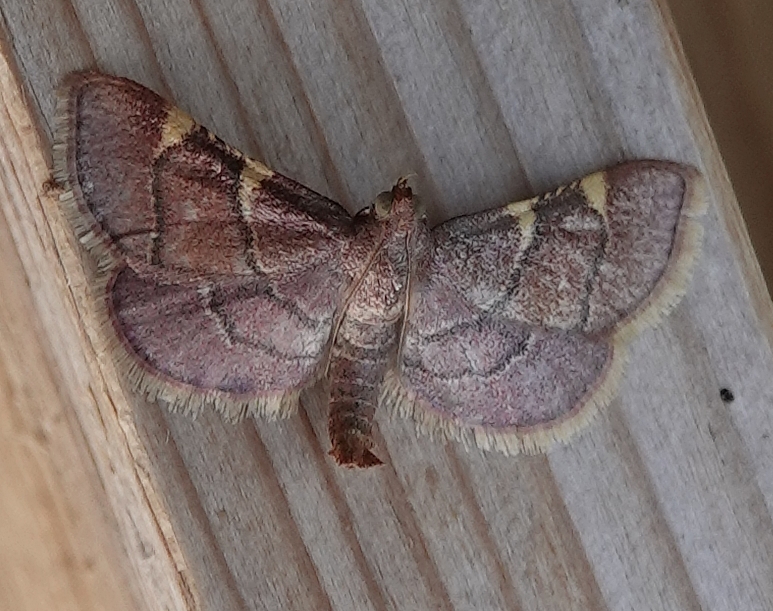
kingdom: Animalia
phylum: Arthropoda
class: Insecta
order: Lepidoptera
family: Pyralidae
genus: Hypsopygia
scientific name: Hypsopygia olinalis
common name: Yellow-fringed dolichomia moth
